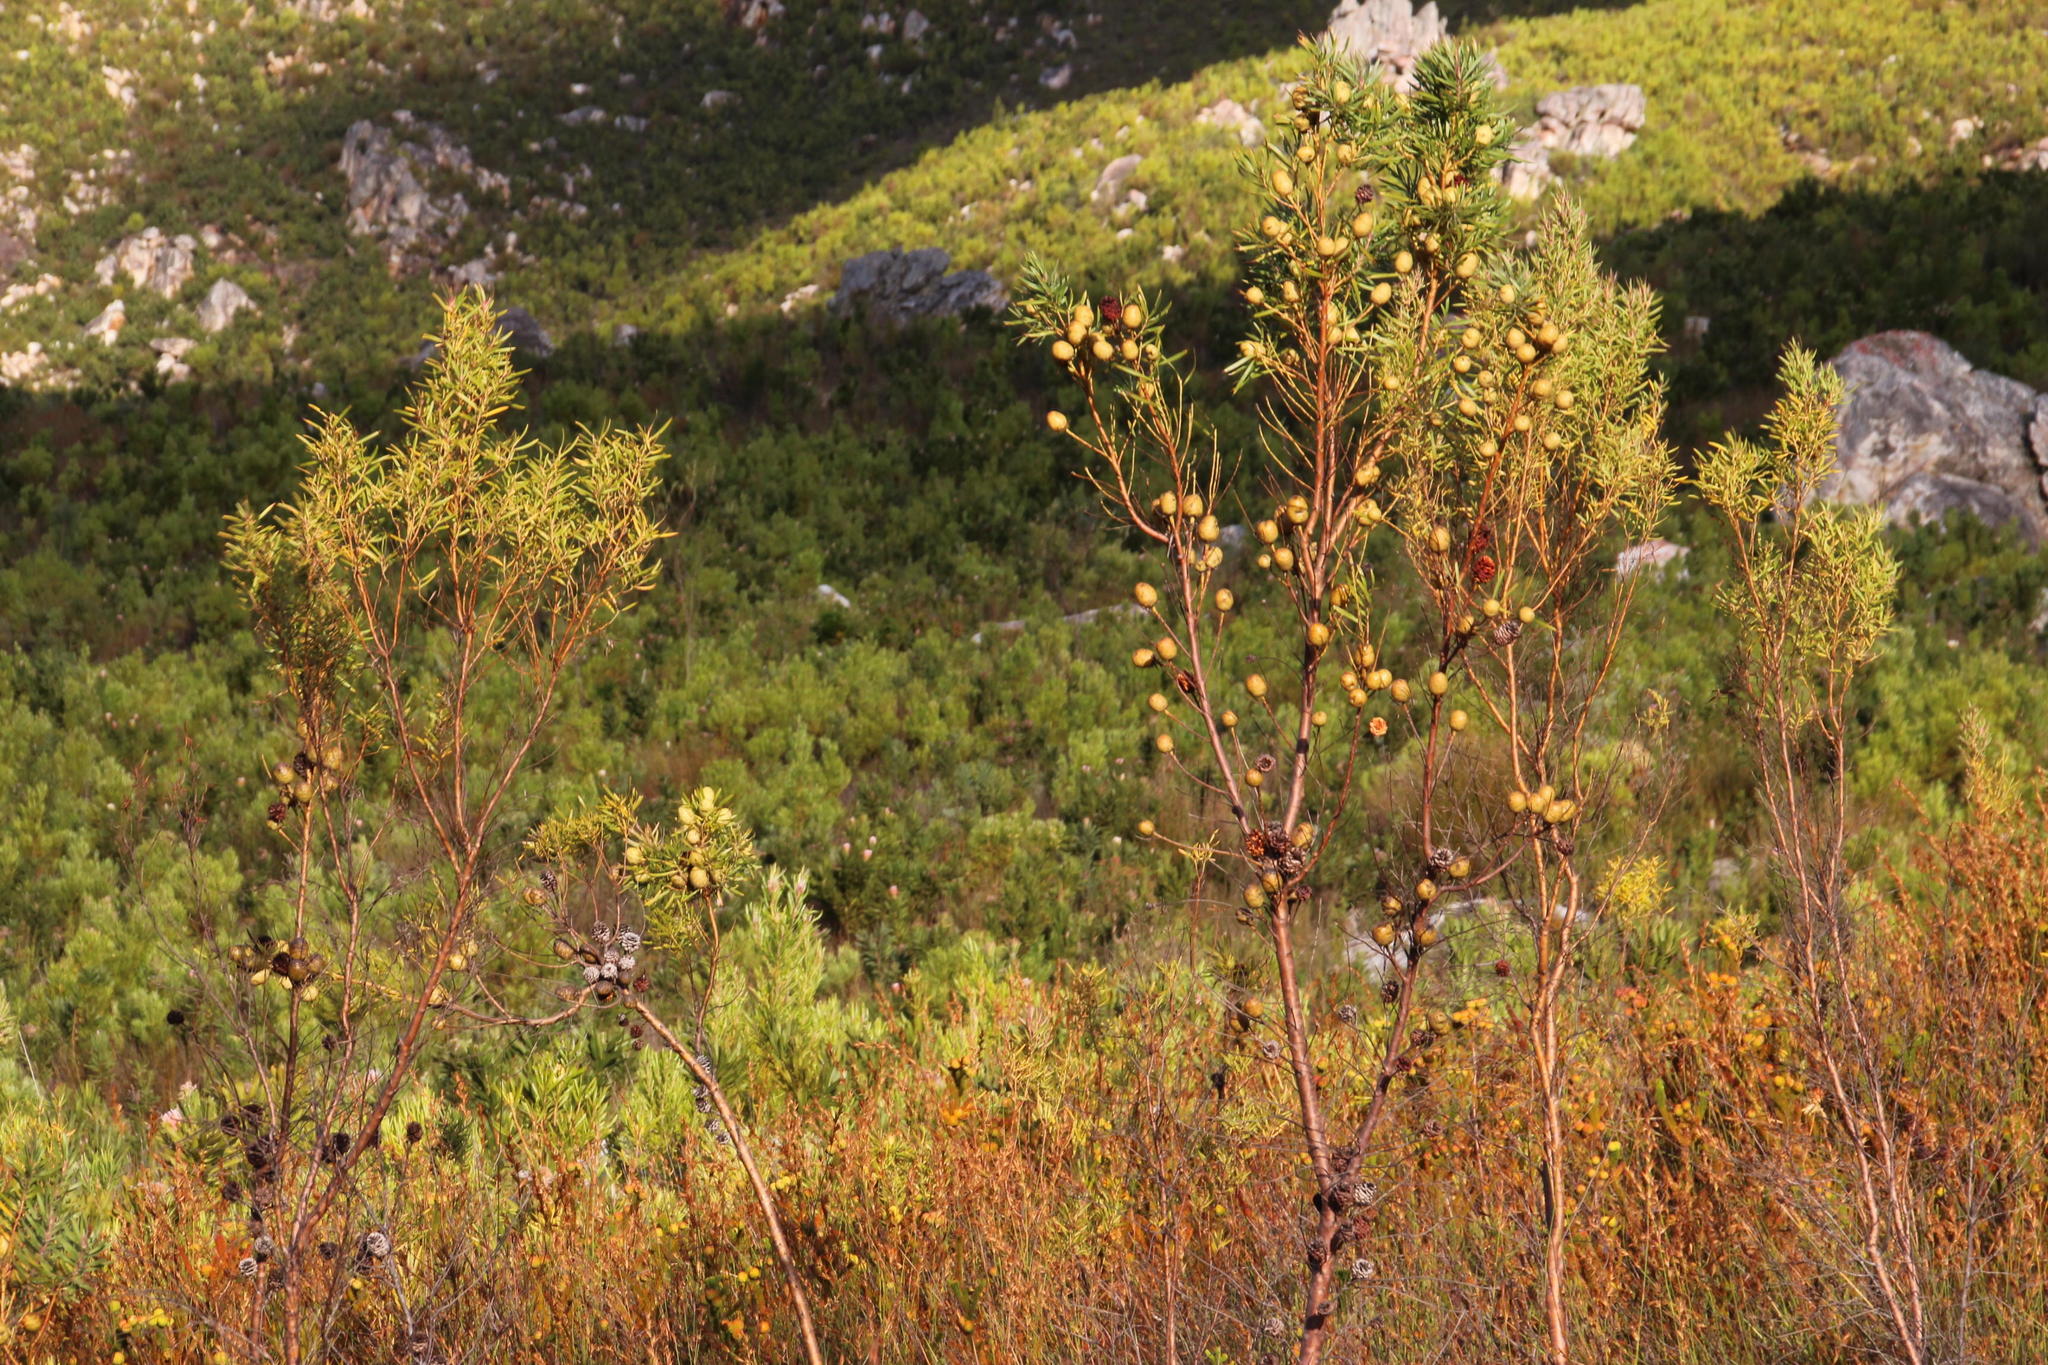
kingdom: Plantae
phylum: Tracheophyta
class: Magnoliopsida
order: Proteales
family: Proteaceae
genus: Leucadendron
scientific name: Leucadendron salicifolium
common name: Common stream conebush
